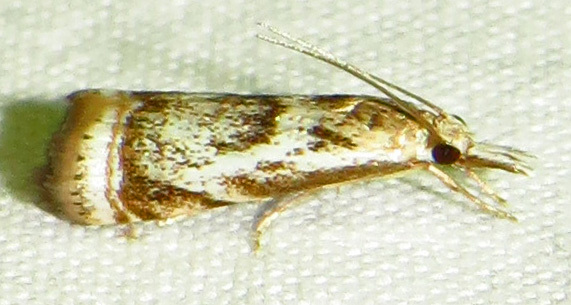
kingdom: Animalia
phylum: Arthropoda
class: Insecta
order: Lepidoptera
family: Crambidae
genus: Microcrambus
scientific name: Microcrambus elegans
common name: Elegant grass-veneer
